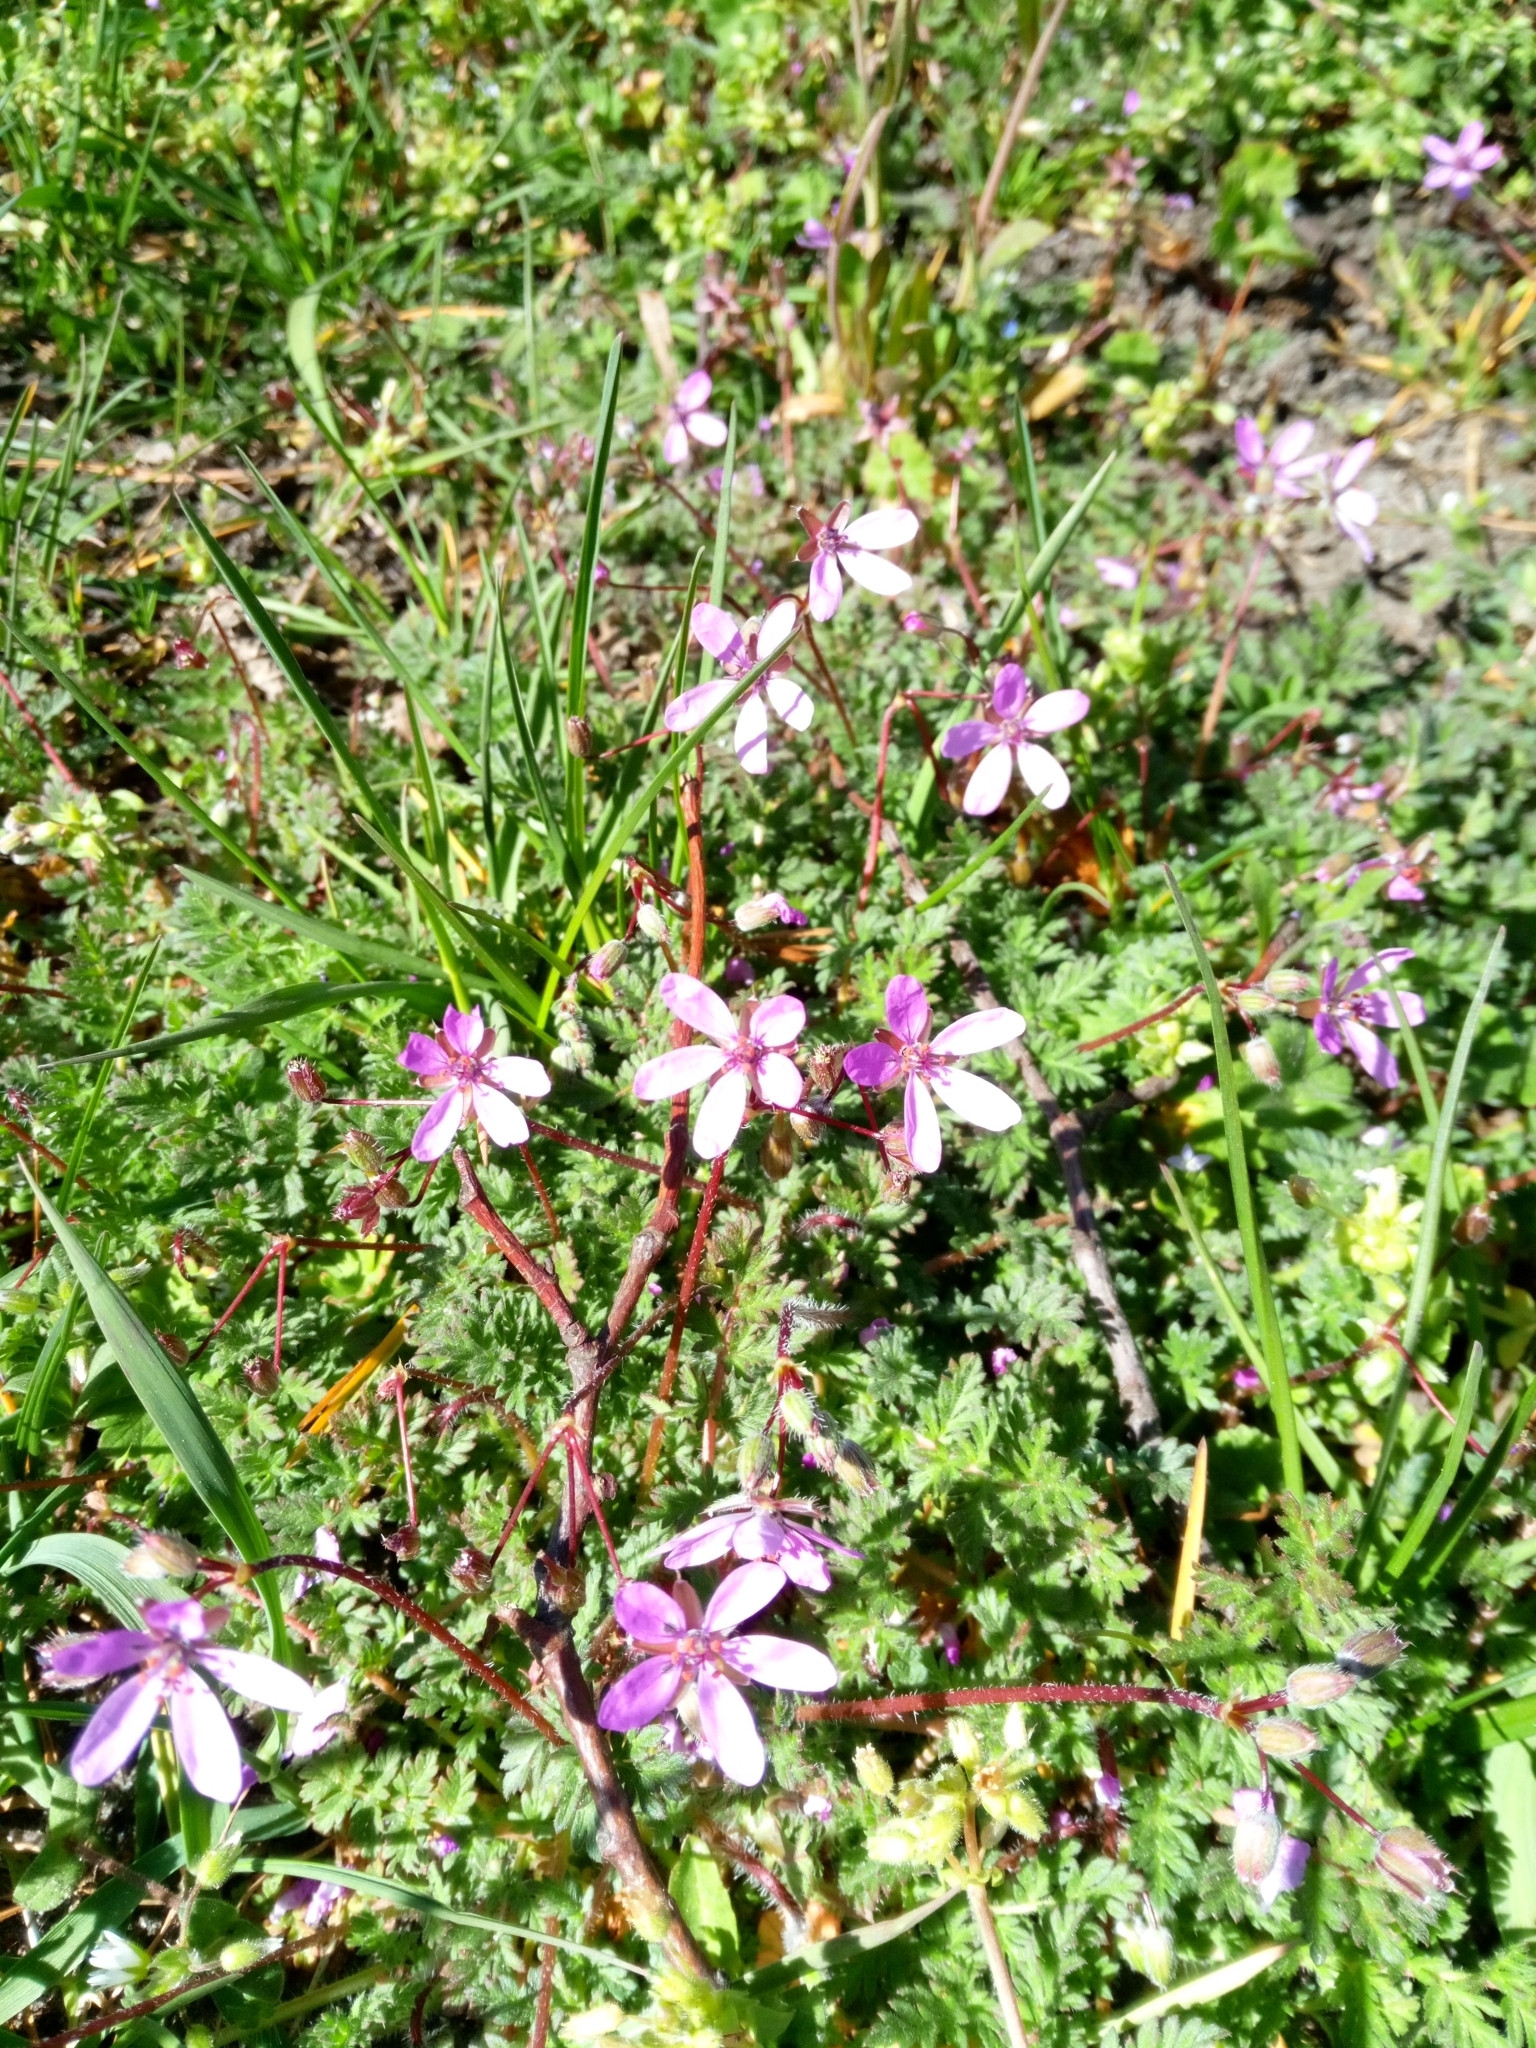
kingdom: Plantae
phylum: Tracheophyta
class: Magnoliopsida
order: Geraniales
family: Geraniaceae
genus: Erodium
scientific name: Erodium cicutarium
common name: Common stork's-bill
